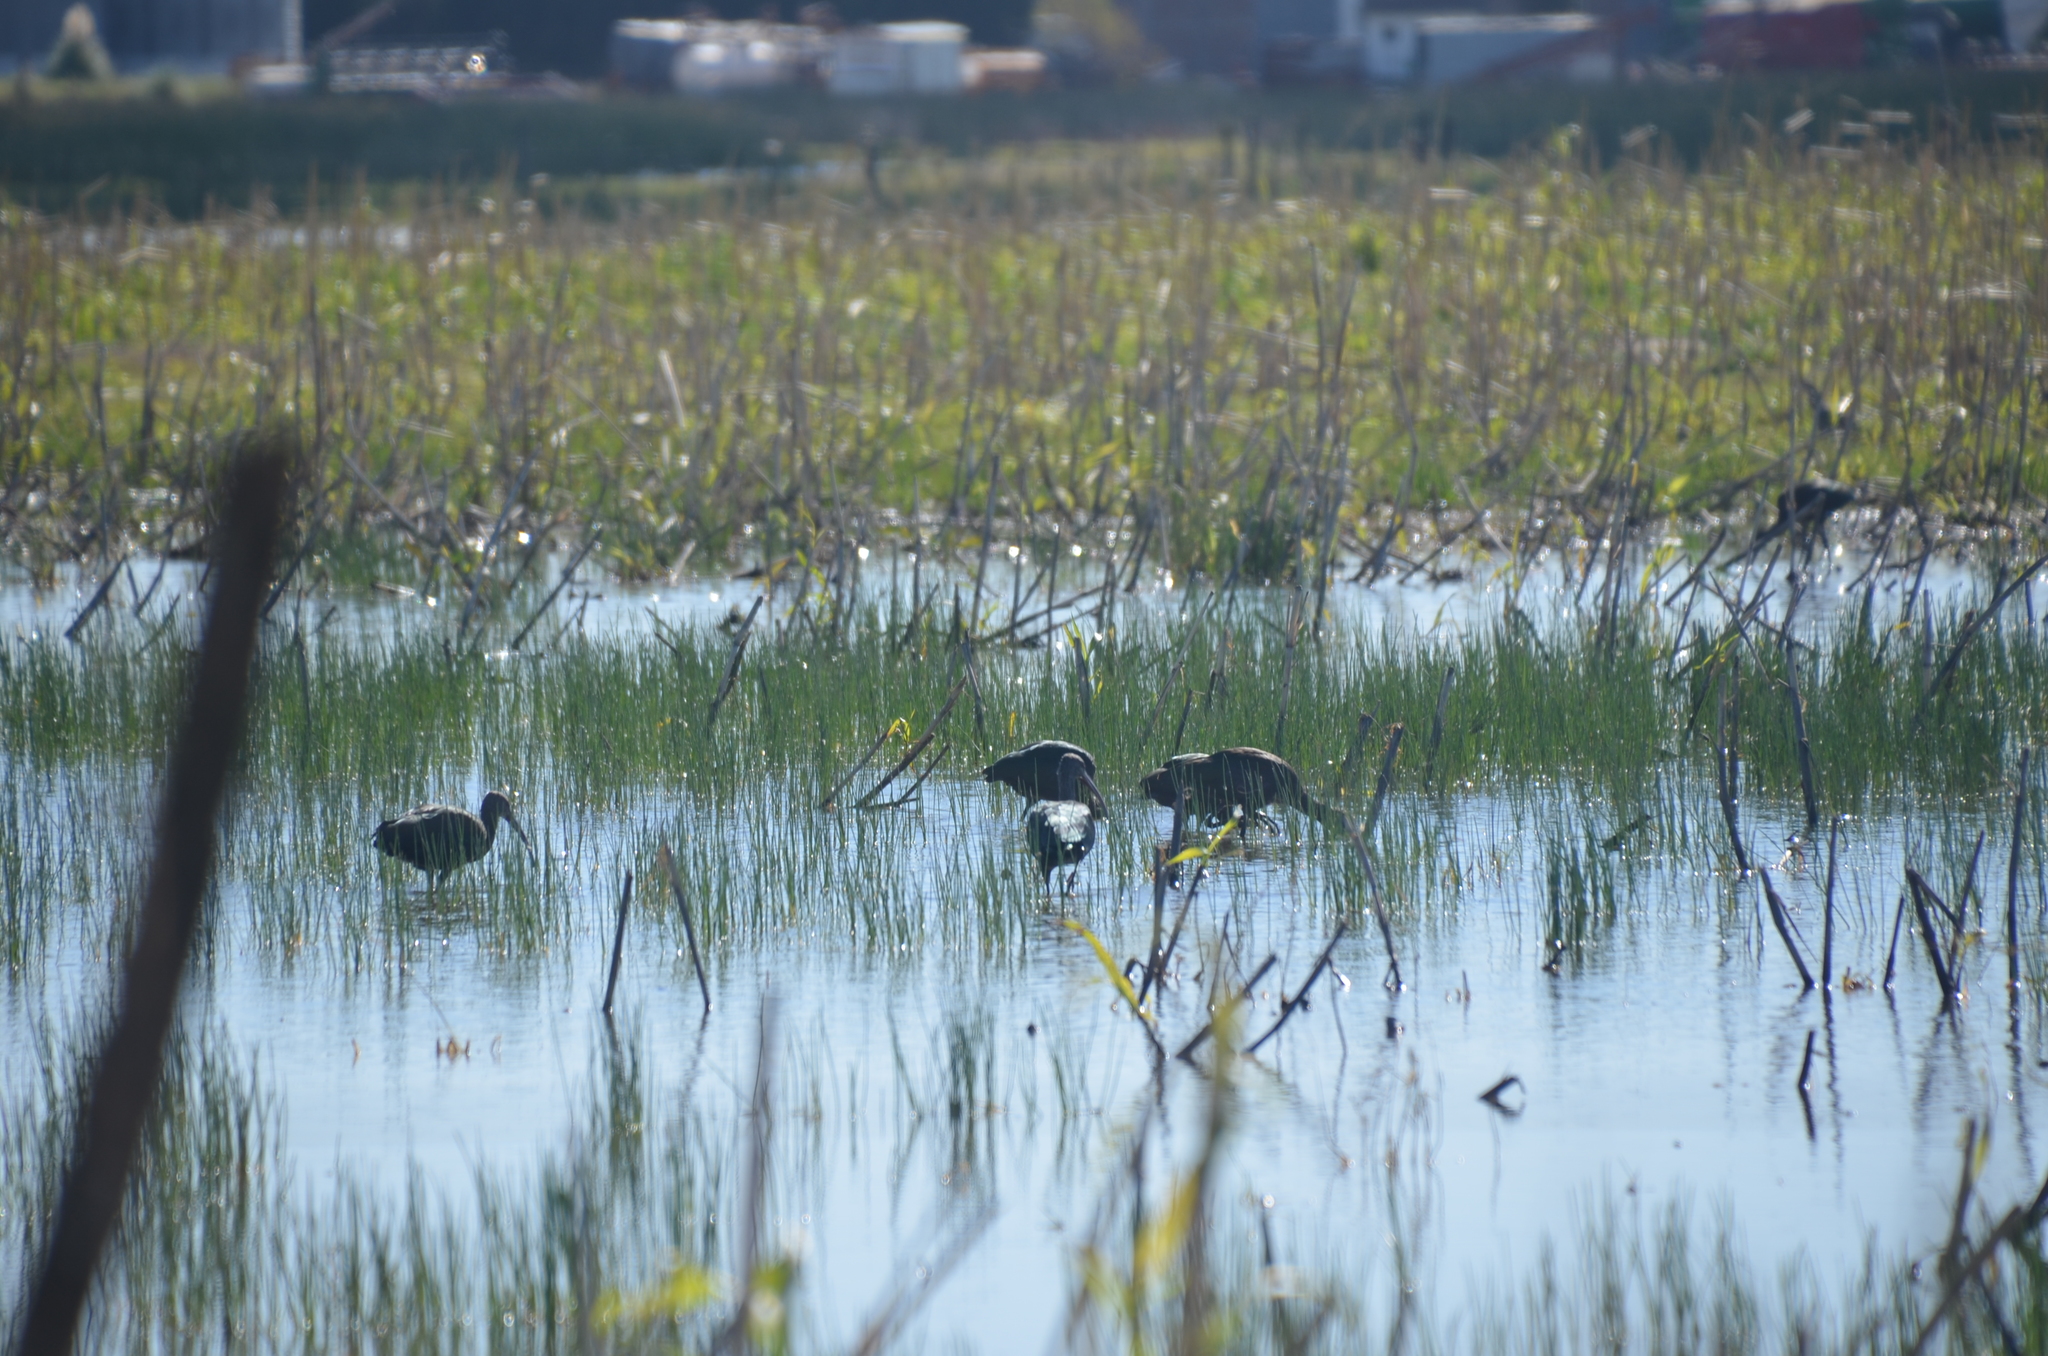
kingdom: Animalia
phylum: Chordata
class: Aves
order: Pelecaniformes
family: Threskiornithidae
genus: Plegadis
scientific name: Plegadis chihi
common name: White-faced ibis
